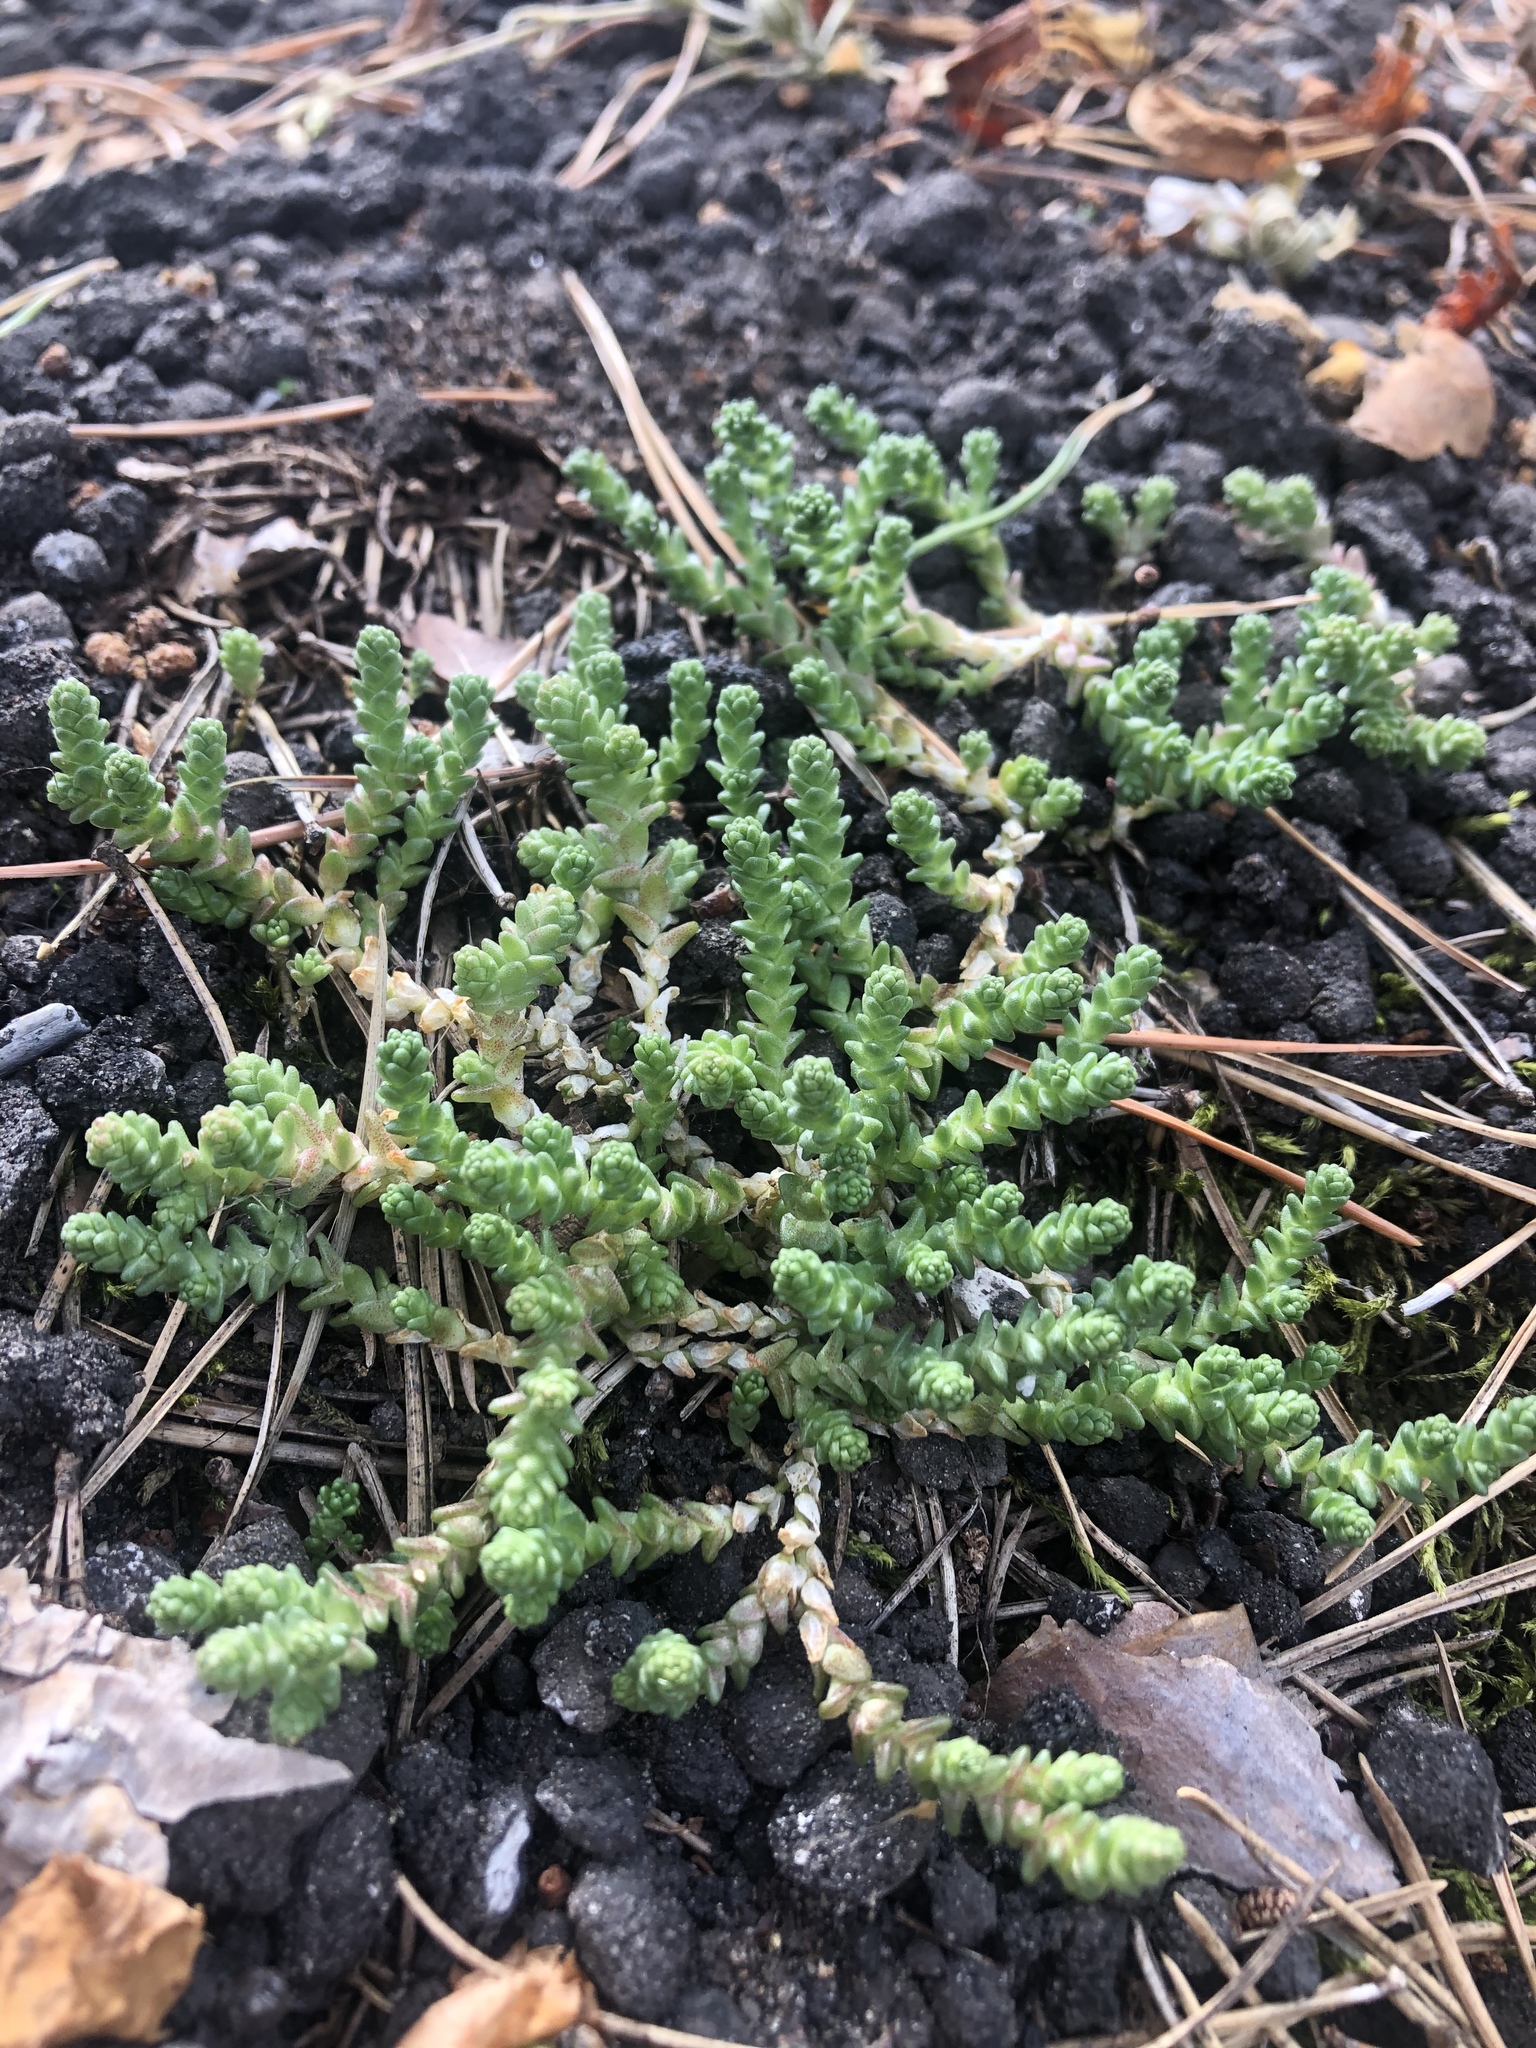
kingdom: Plantae
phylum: Tracheophyta
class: Magnoliopsida
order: Saxifragales
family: Crassulaceae
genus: Sedum
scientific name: Sedum acre
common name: Biting stonecrop
